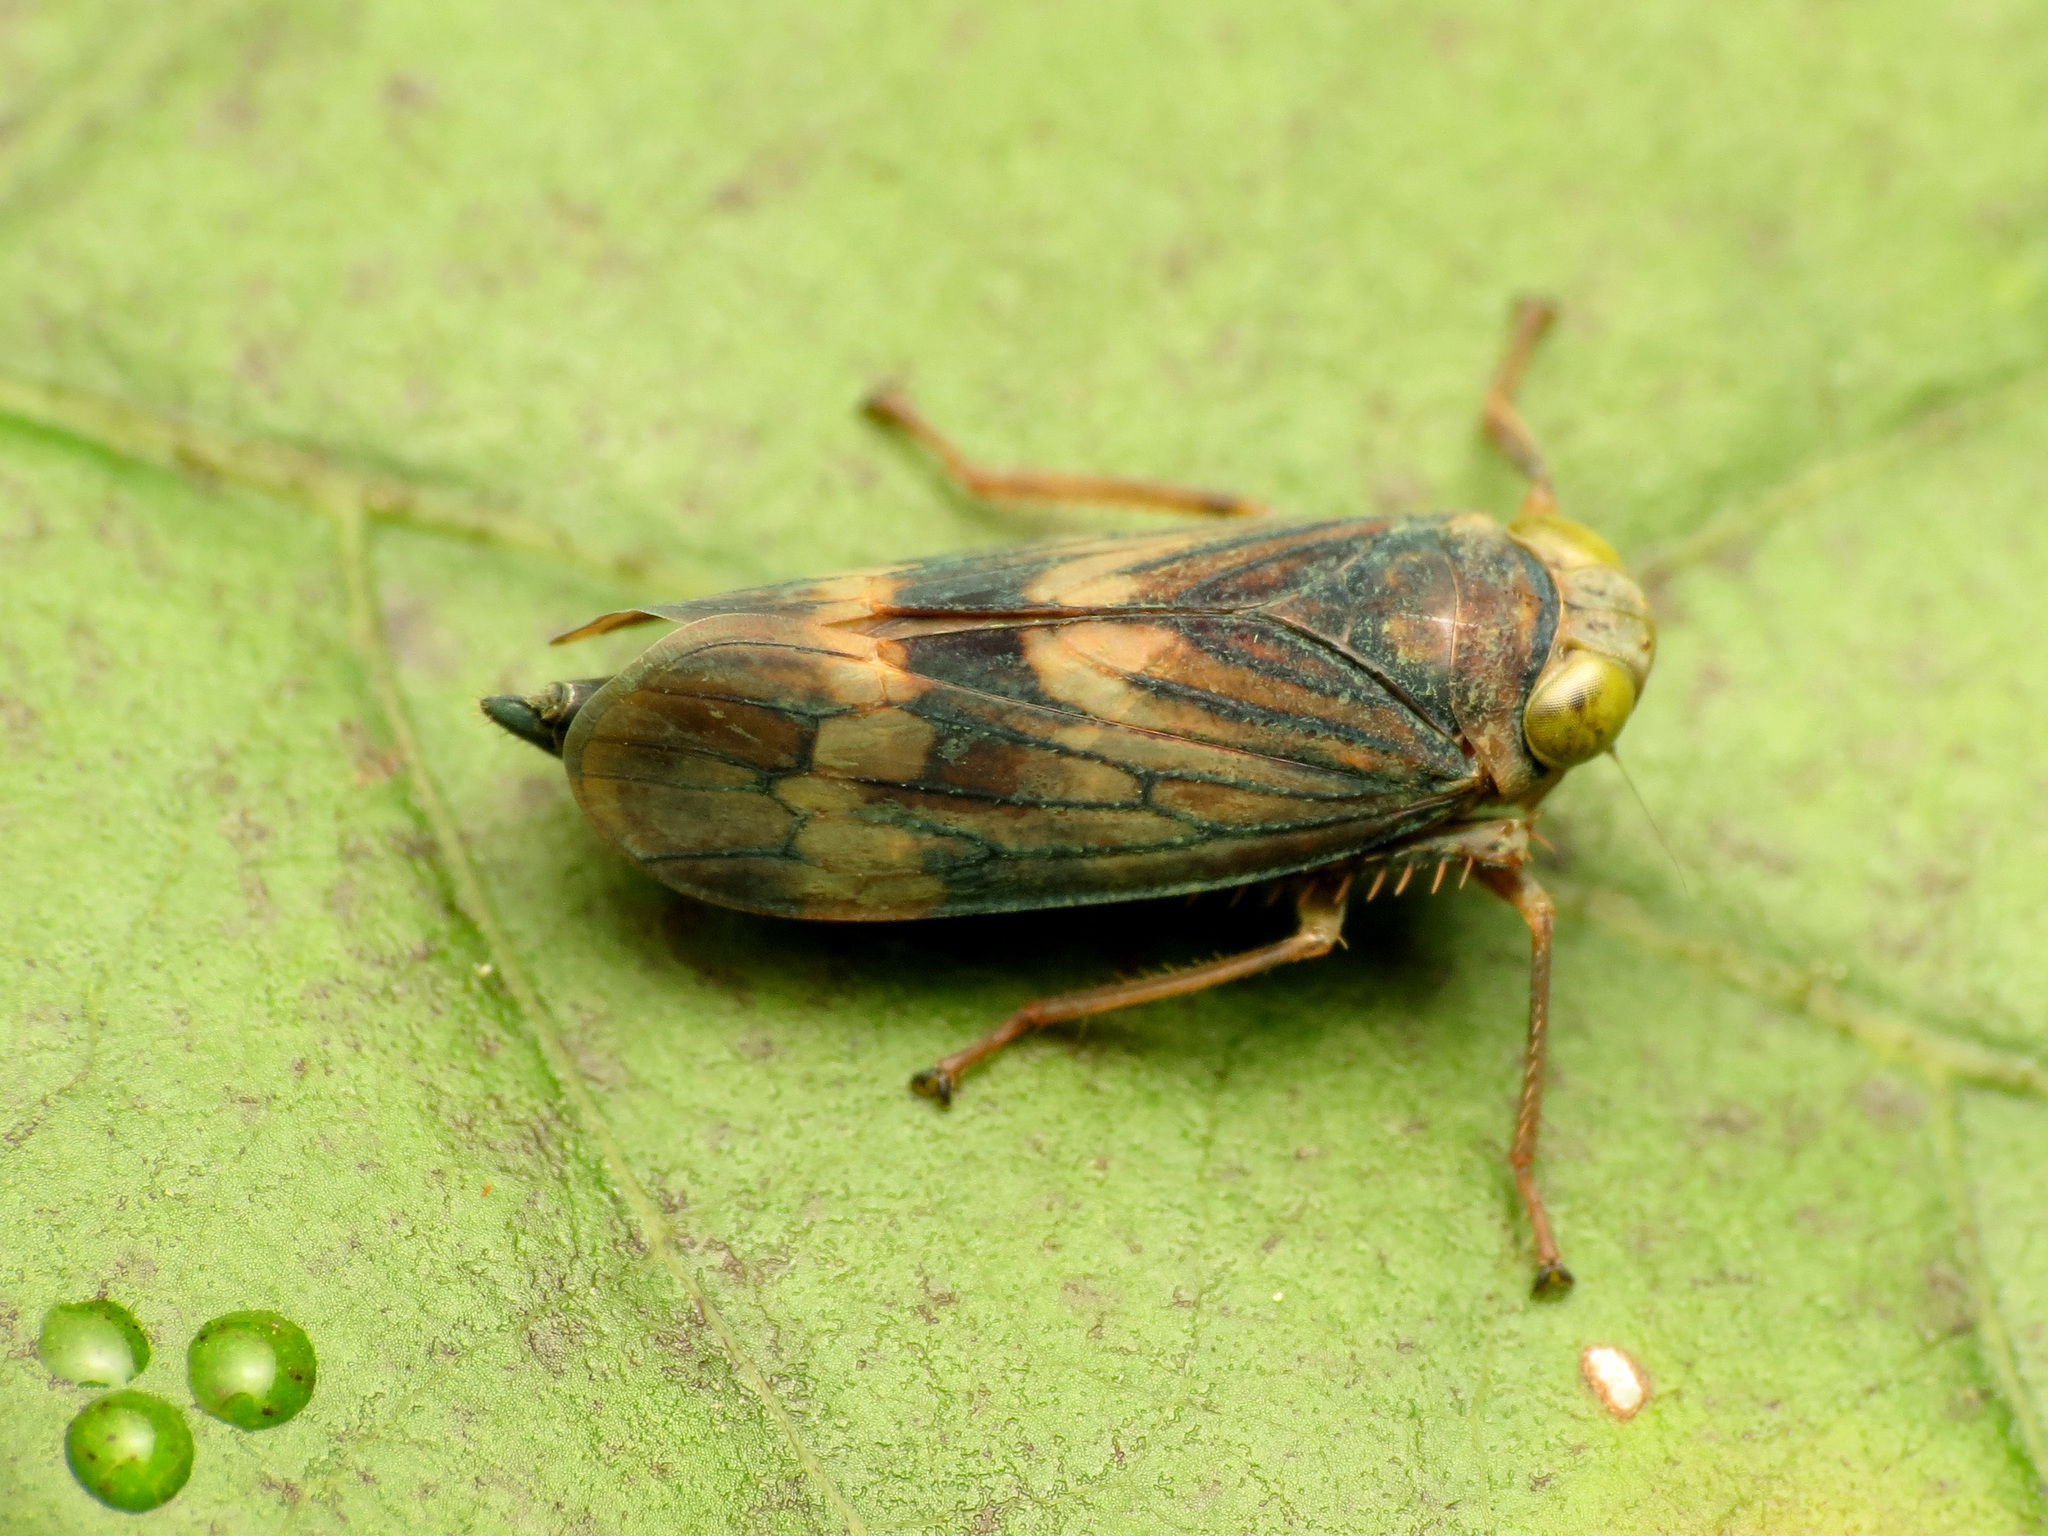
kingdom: Animalia
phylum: Arthropoda
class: Insecta
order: Hemiptera
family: Cicadellidae
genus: Jikradia
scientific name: Jikradia olitoria
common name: Coppery leafhopper
